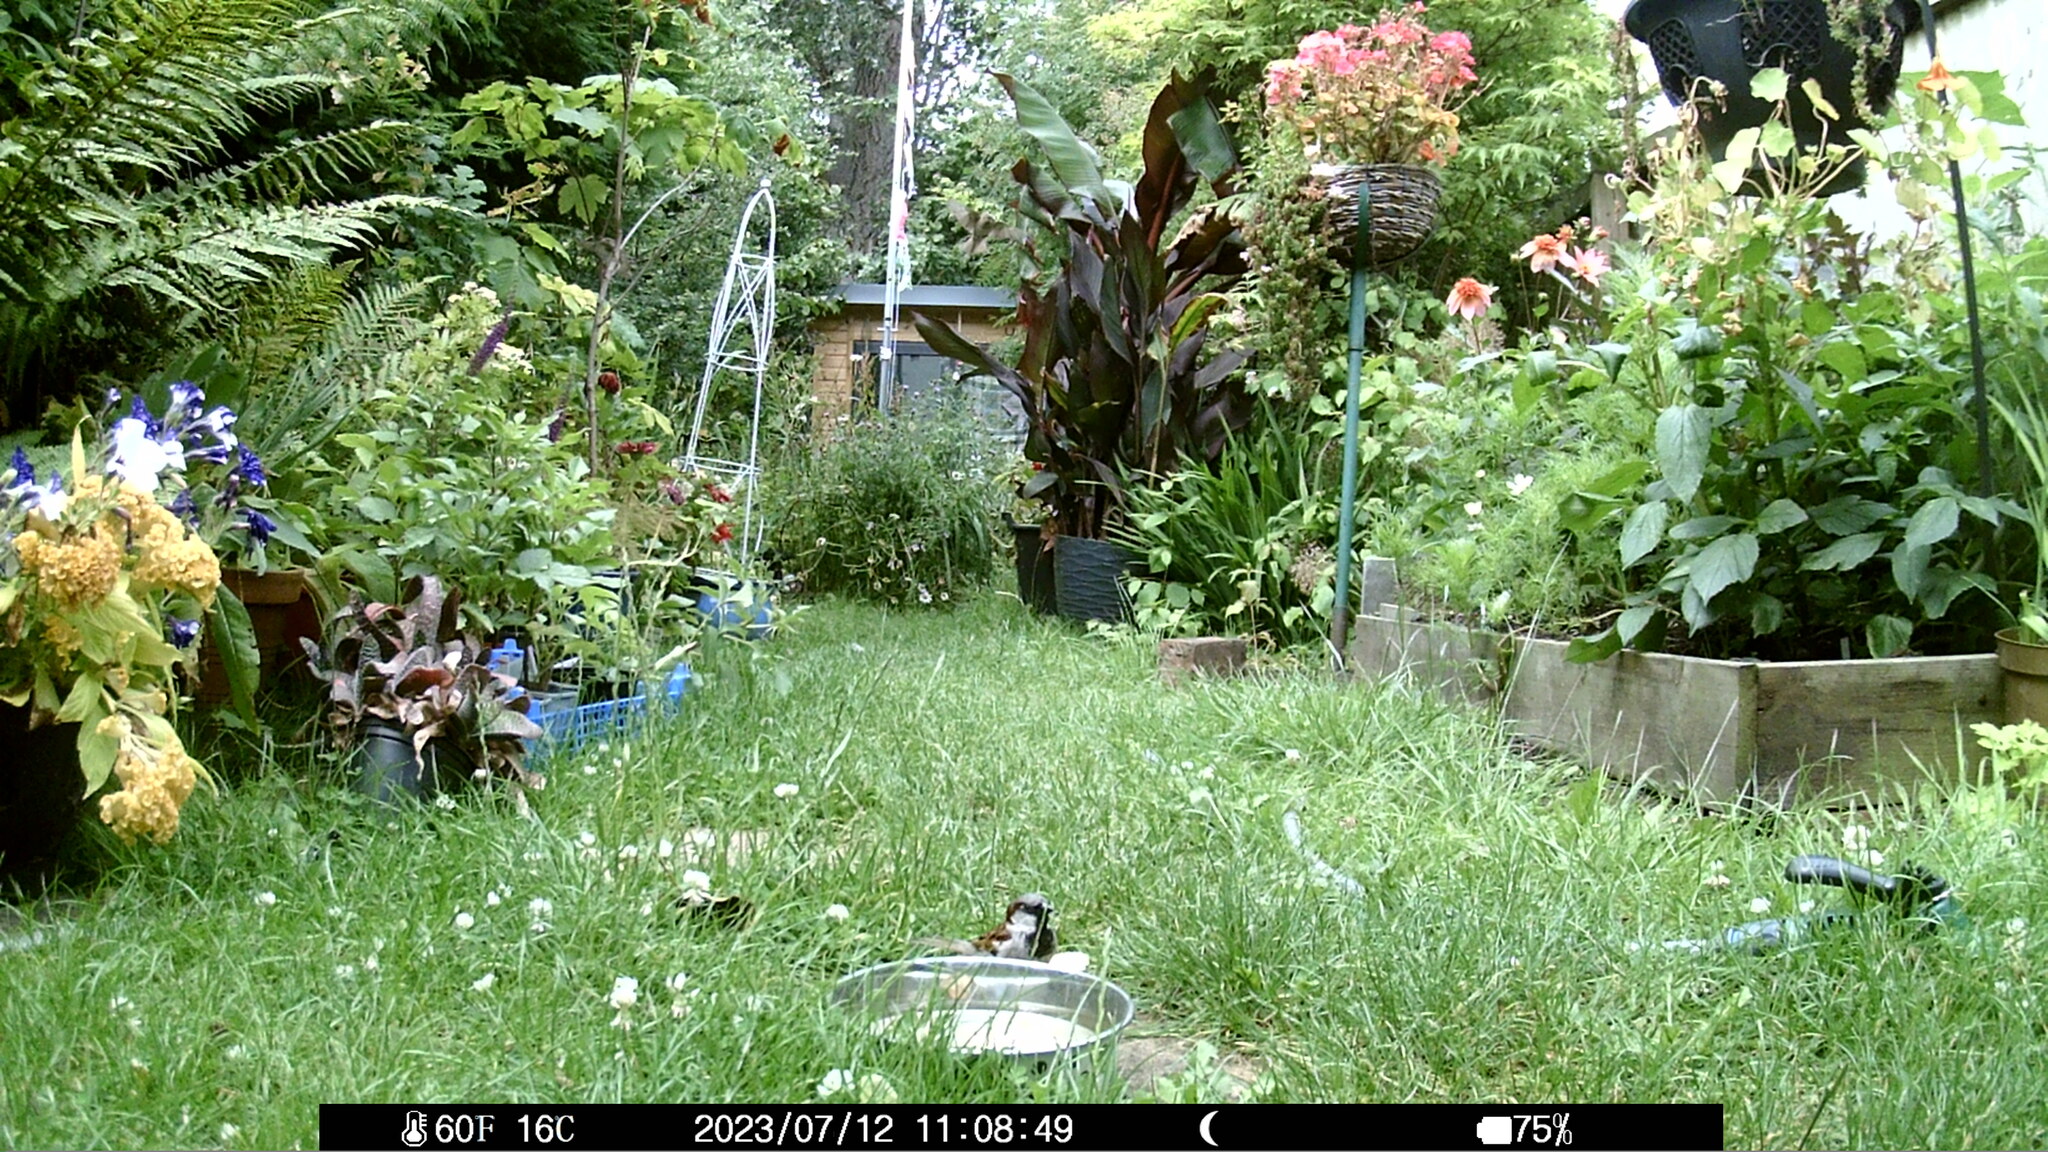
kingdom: Animalia
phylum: Chordata
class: Aves
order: Passeriformes
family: Passeridae
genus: Passer
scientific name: Passer domesticus
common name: House sparrow
